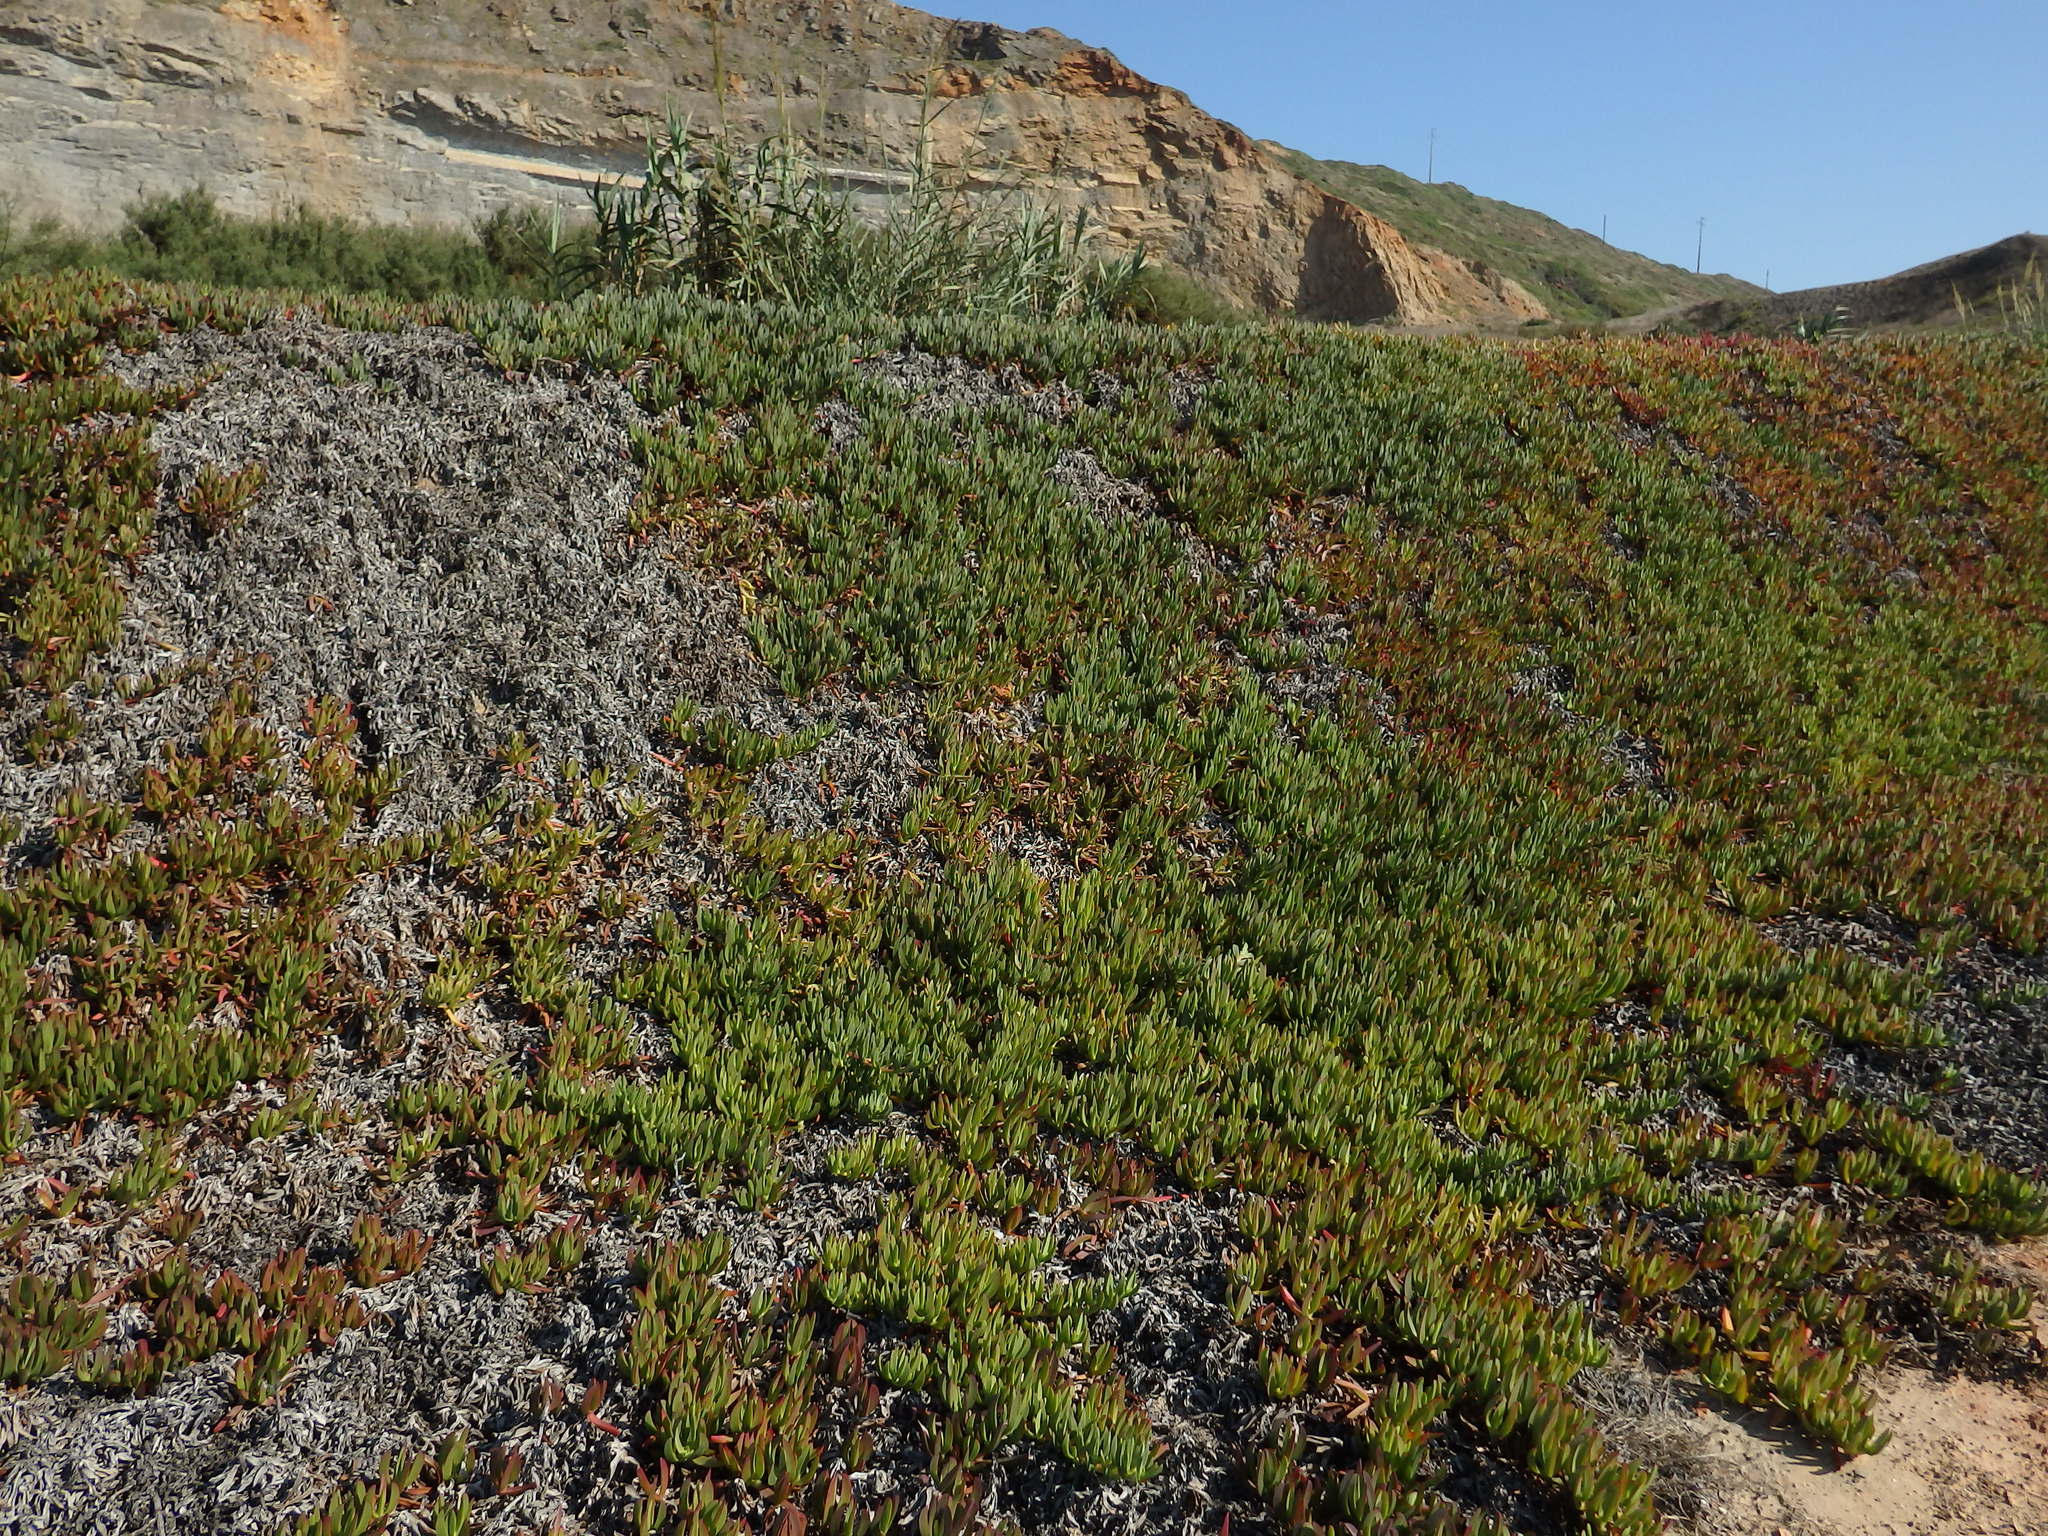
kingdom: Plantae
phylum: Tracheophyta
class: Magnoliopsida
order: Caryophyllales
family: Aizoaceae
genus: Carpobrotus
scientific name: Carpobrotus edulis
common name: Hottentot-fig
